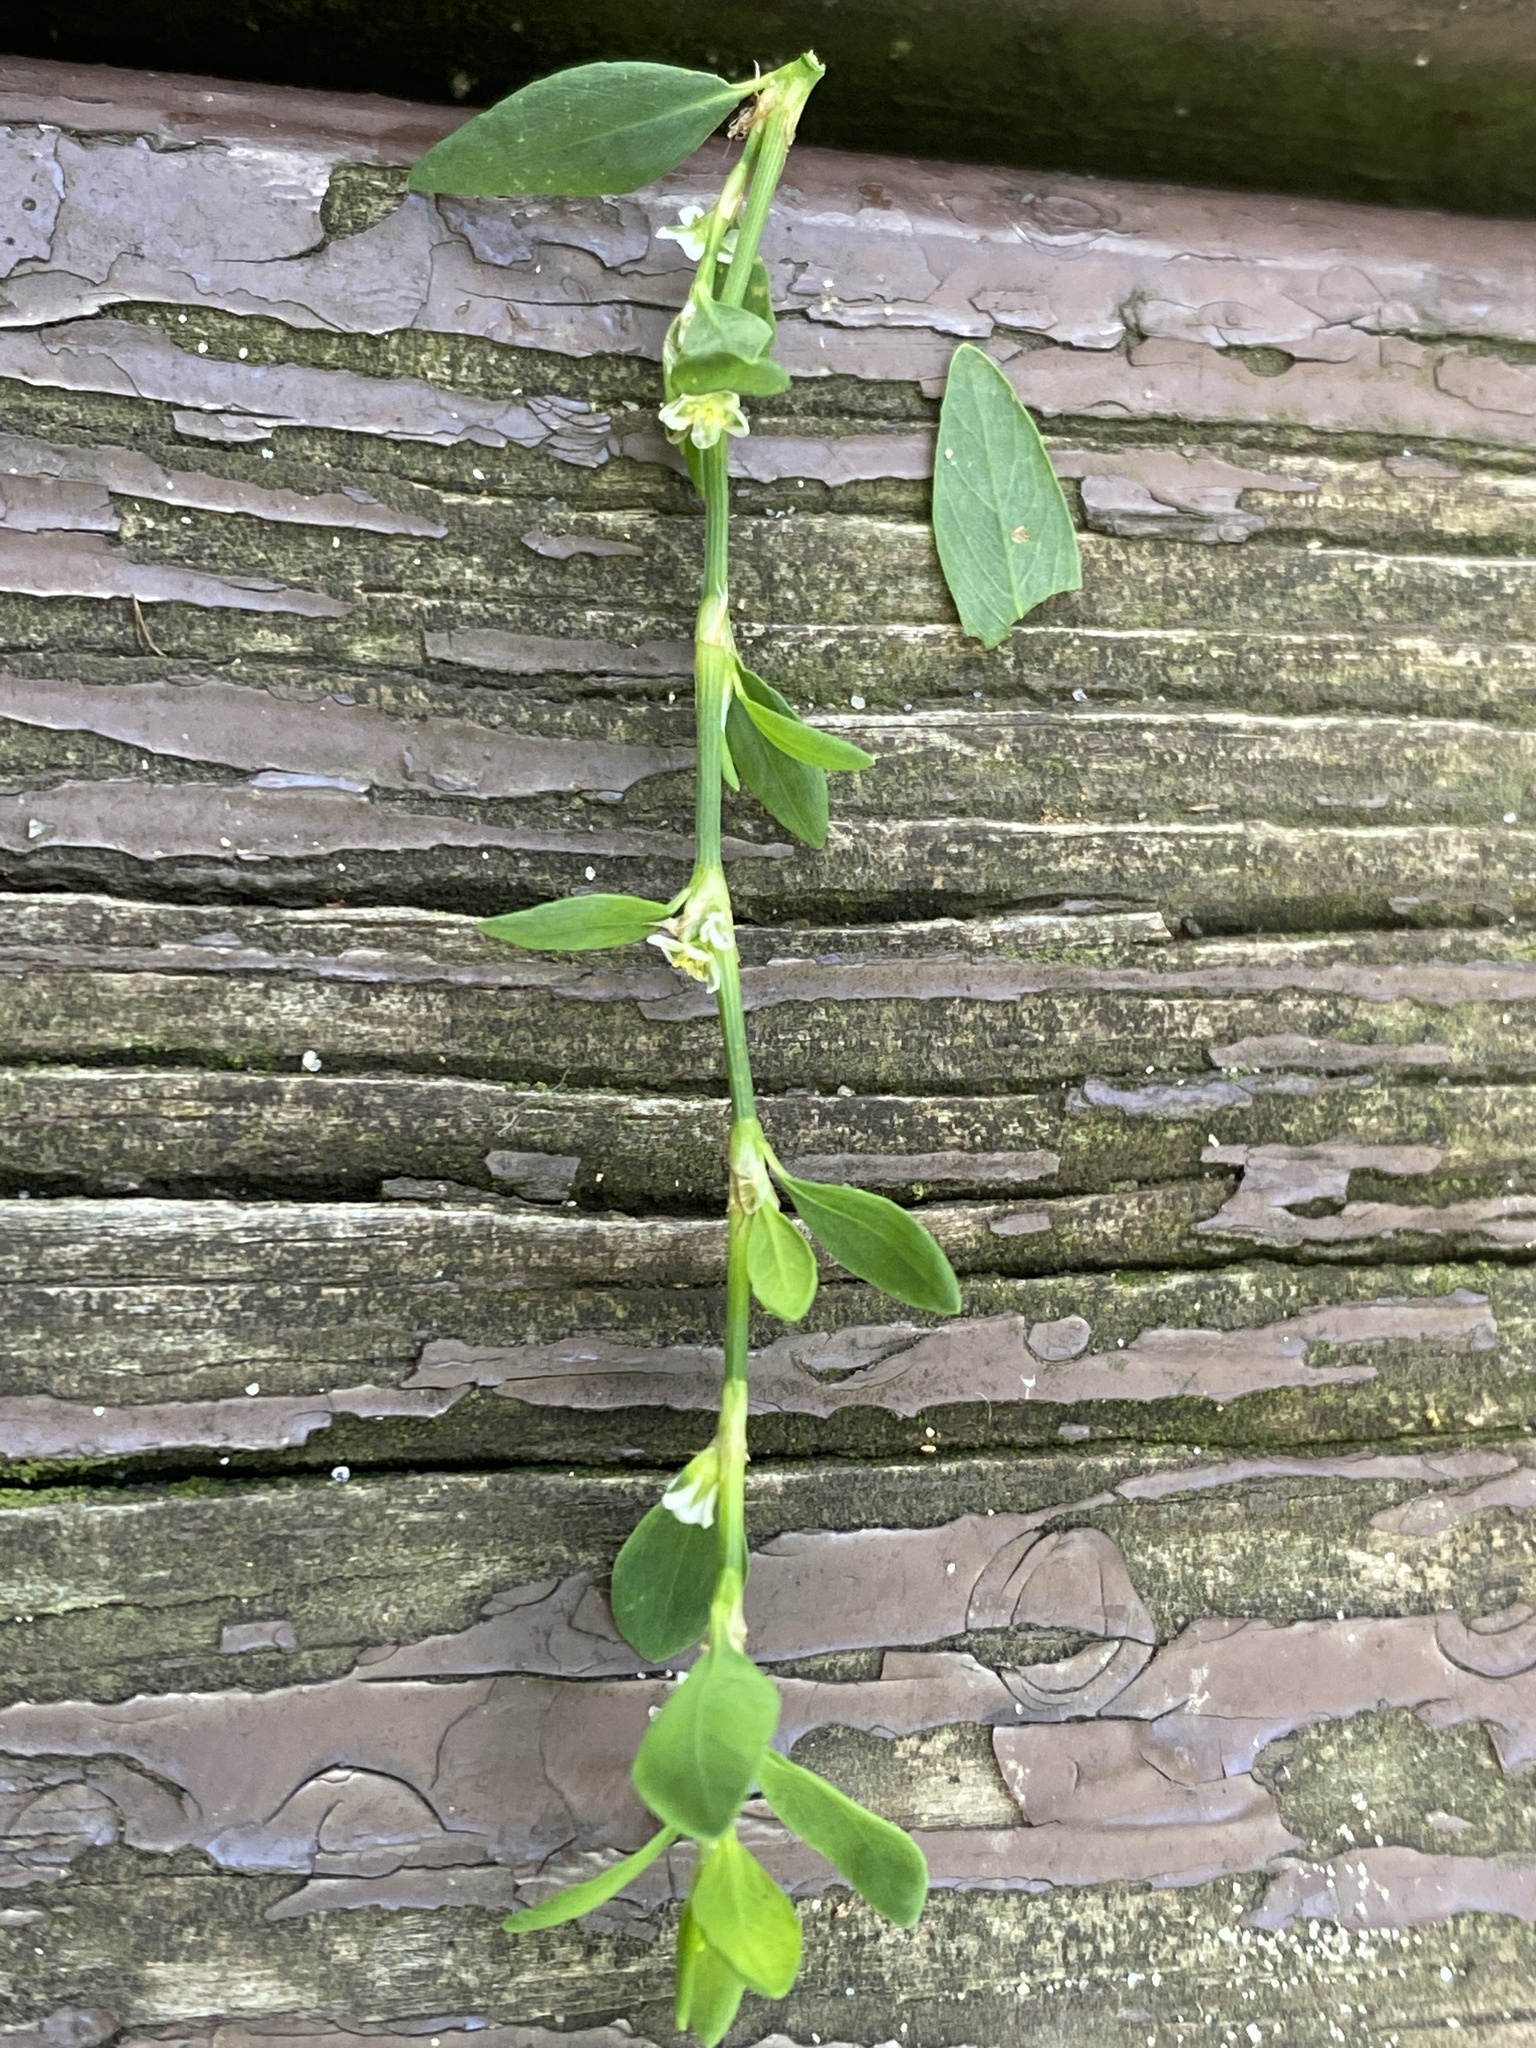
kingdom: Plantae
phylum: Tracheophyta
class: Magnoliopsida
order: Caryophyllales
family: Polygonaceae
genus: Polygonum
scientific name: Polygonum aviculare
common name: Prostrate knotweed
